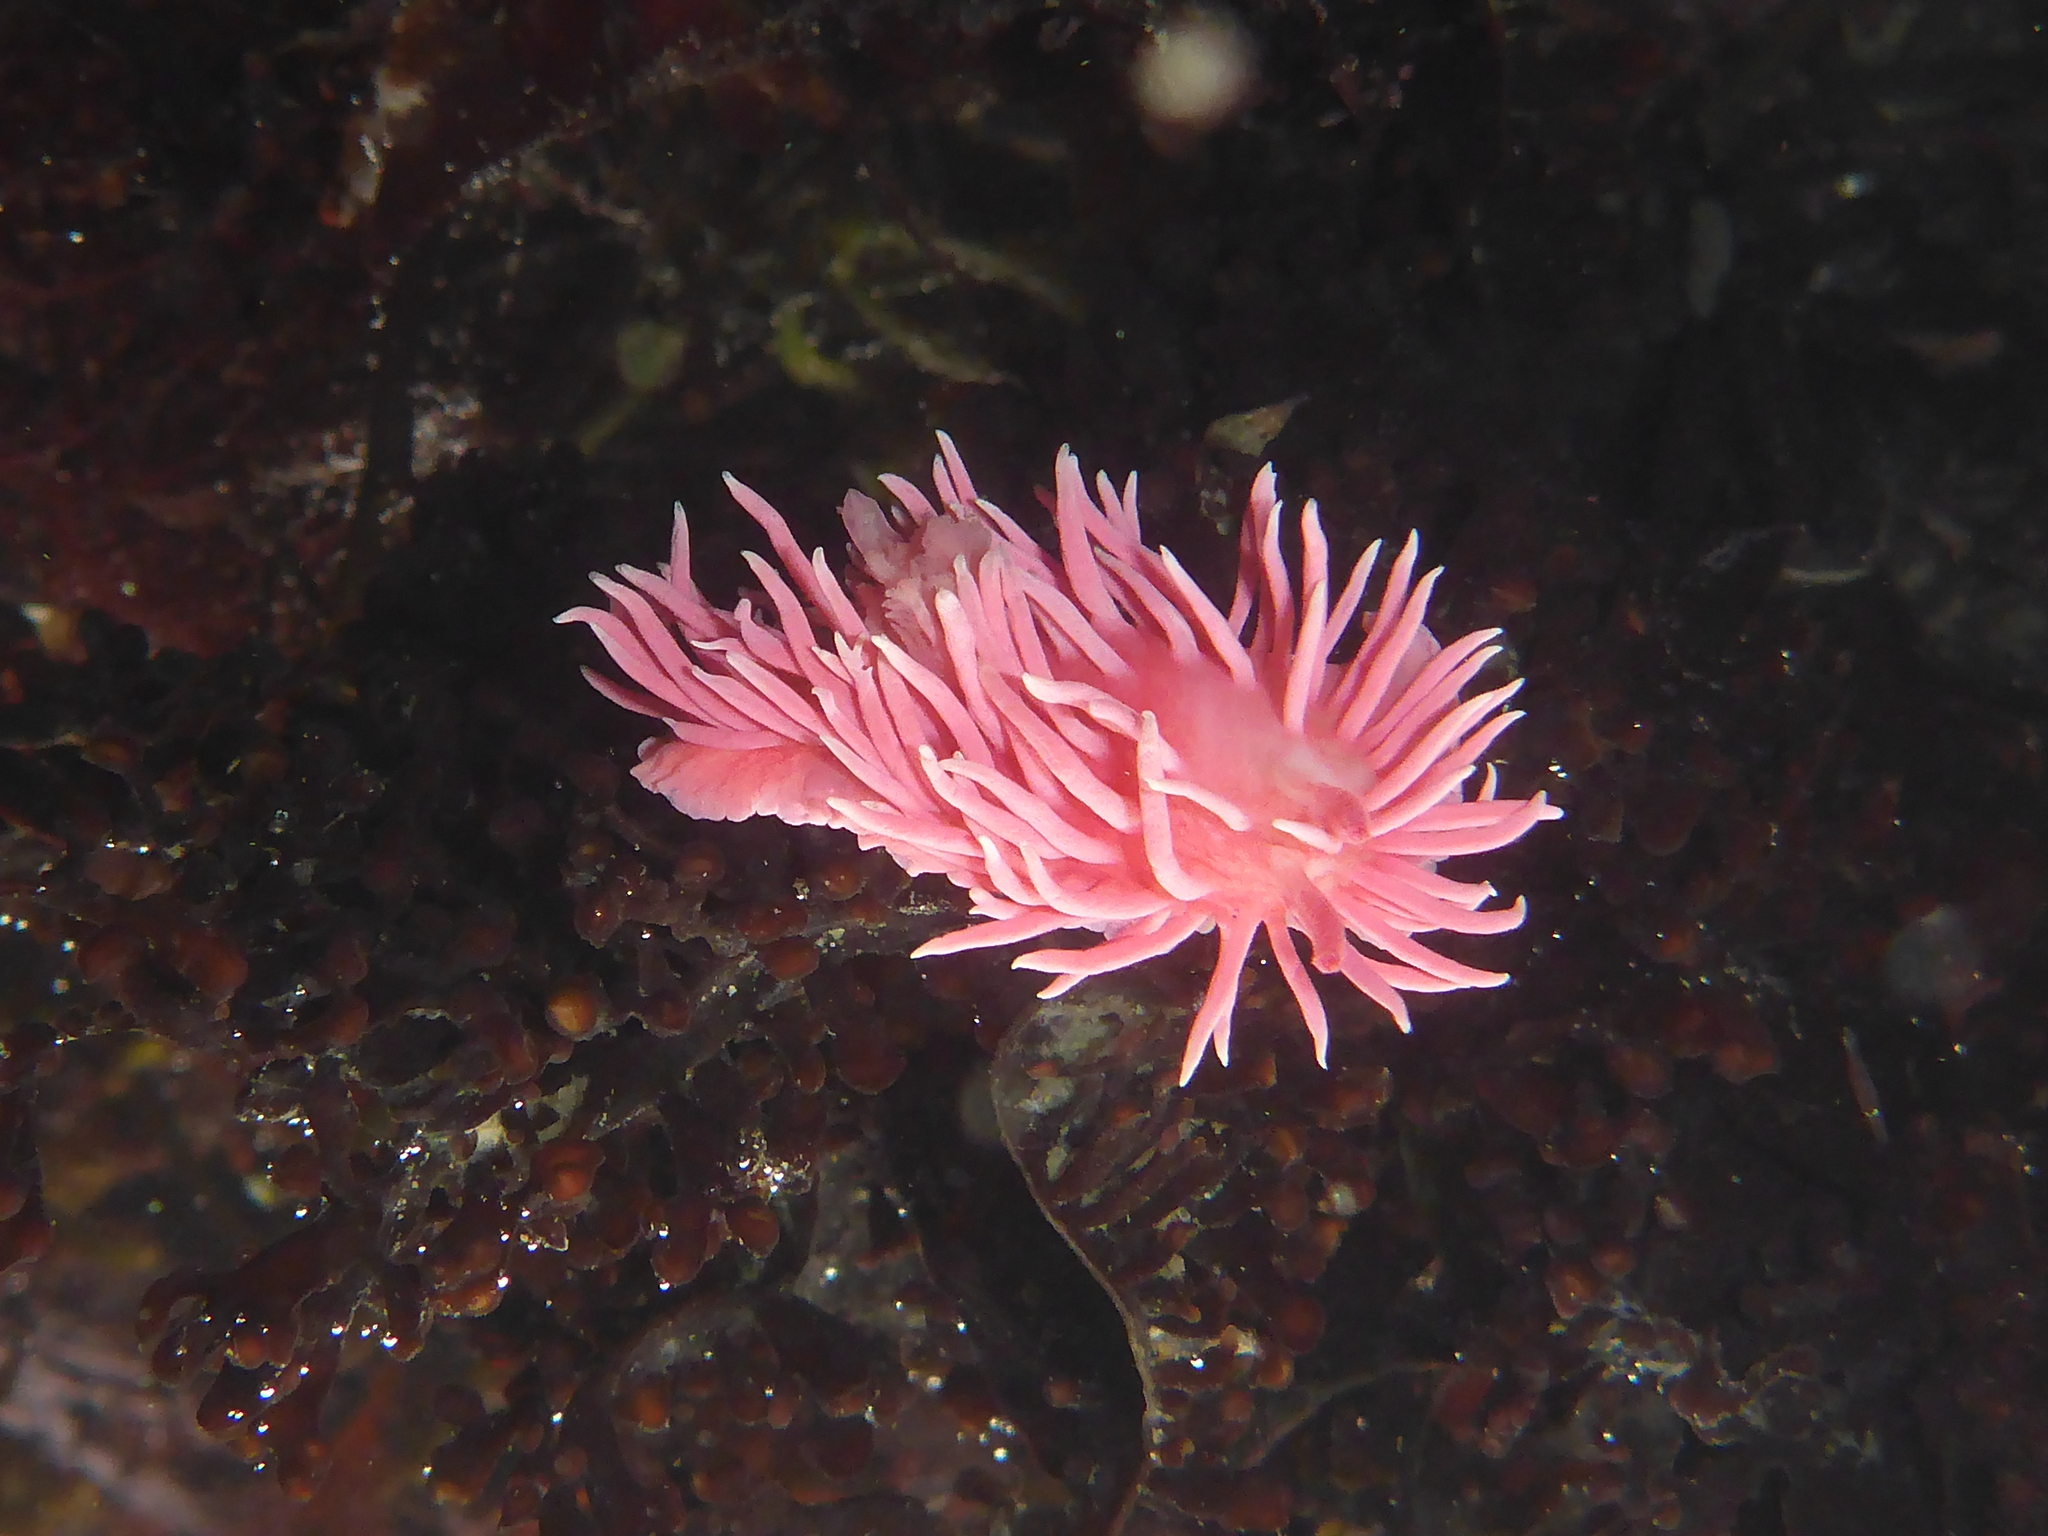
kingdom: Animalia
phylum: Mollusca
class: Gastropoda
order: Nudibranchia
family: Goniodorididae
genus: Okenia
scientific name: Okenia
